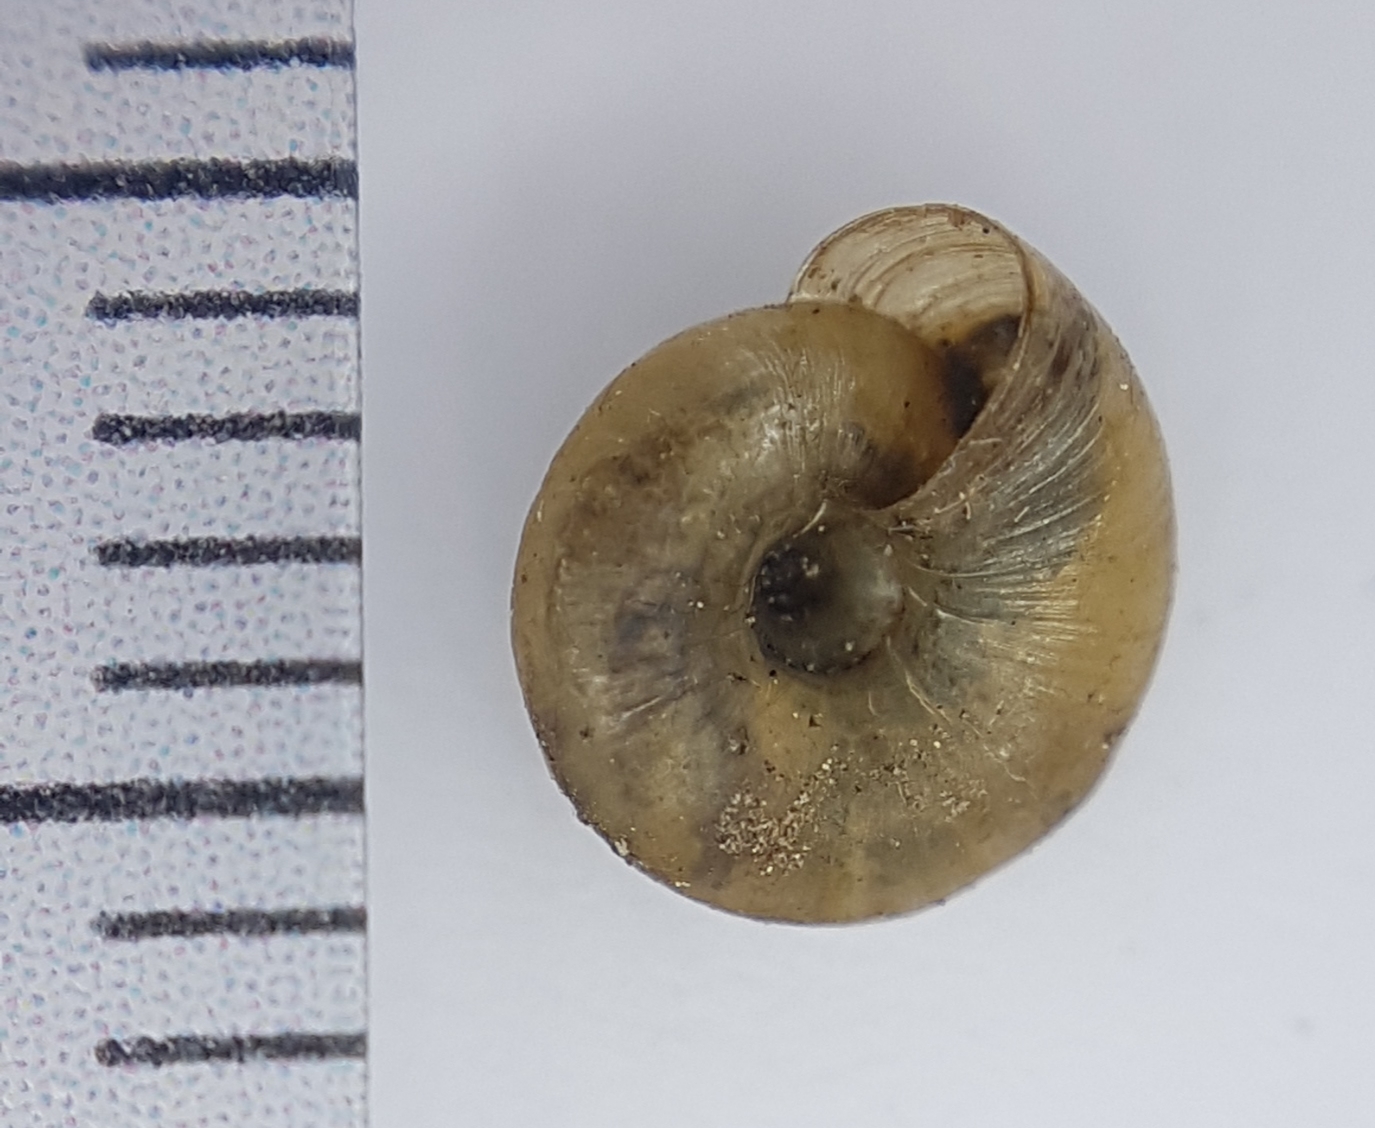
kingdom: Animalia
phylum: Mollusca
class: Gastropoda
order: Stylommatophora
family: Gastrodontidae
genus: Zonitoides
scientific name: Zonitoides arboreus
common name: Quick gloss
